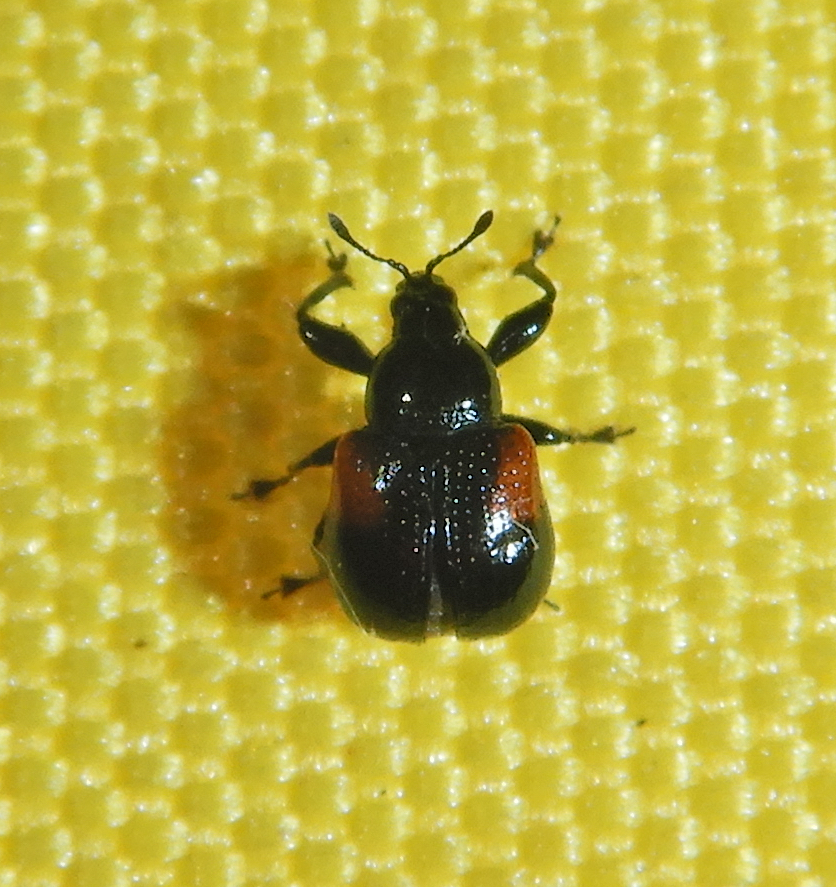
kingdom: Animalia
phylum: Arthropoda
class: Insecta
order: Coleoptera
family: Attelabidae
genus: Attelabus
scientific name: Attelabus bipustulatus
